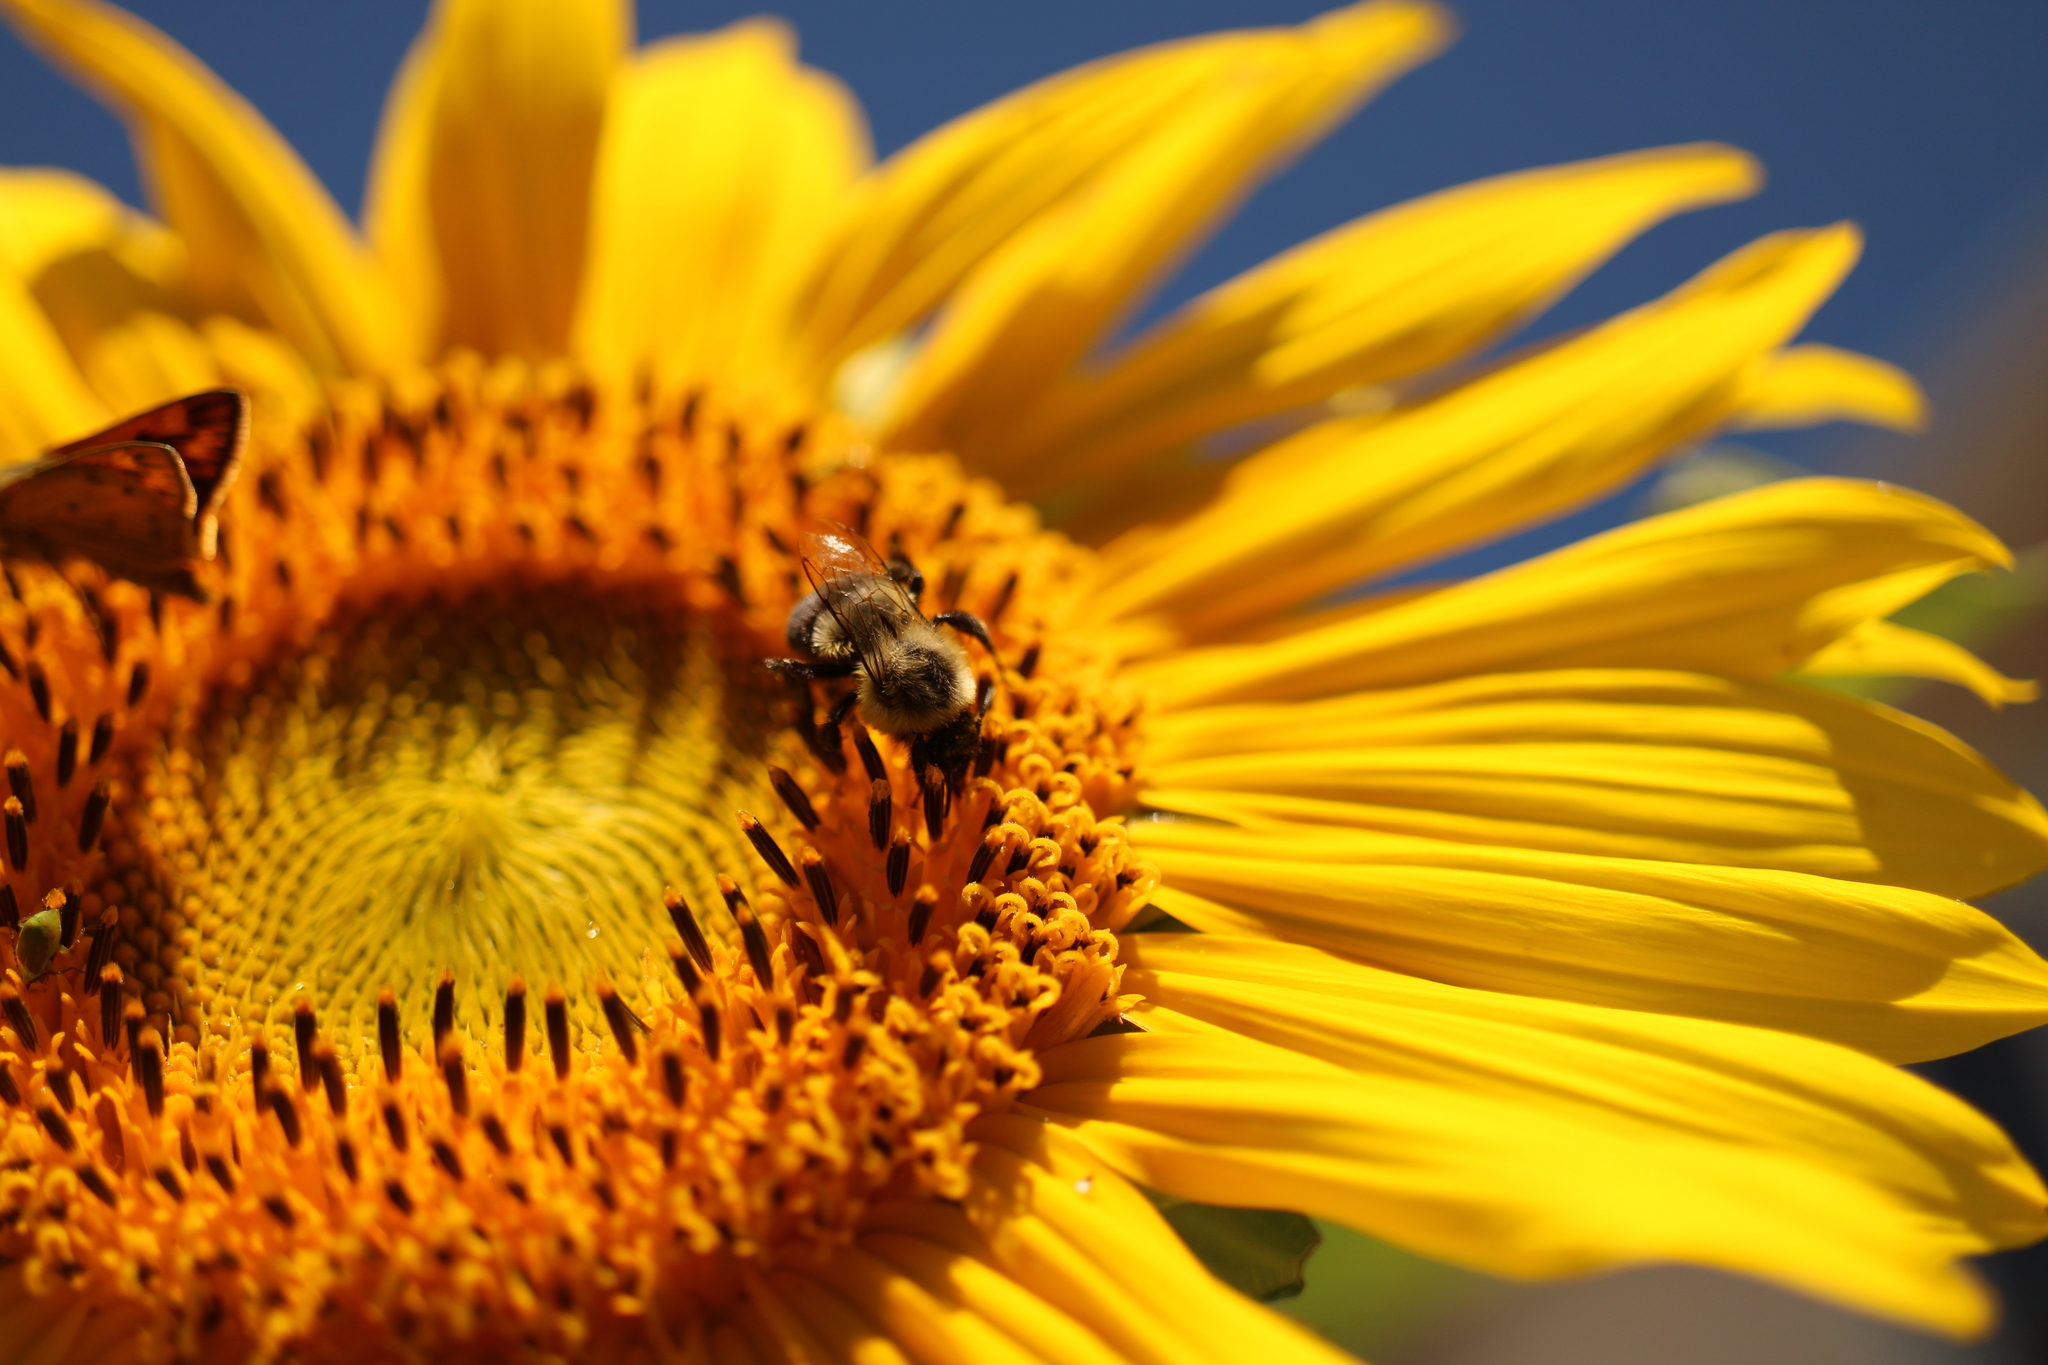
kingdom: Animalia
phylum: Arthropoda
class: Insecta
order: Hymenoptera
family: Apidae
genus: Bombus
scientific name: Bombus impatiens
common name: Common eastern bumble bee
